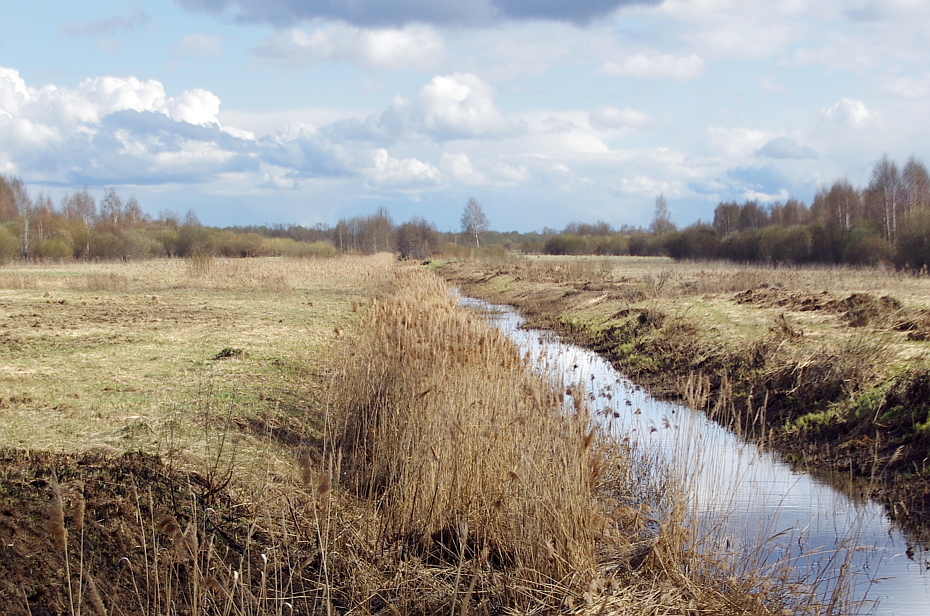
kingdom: Plantae
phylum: Tracheophyta
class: Liliopsida
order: Poales
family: Poaceae
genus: Phragmites
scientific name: Phragmites australis
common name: Common reed
